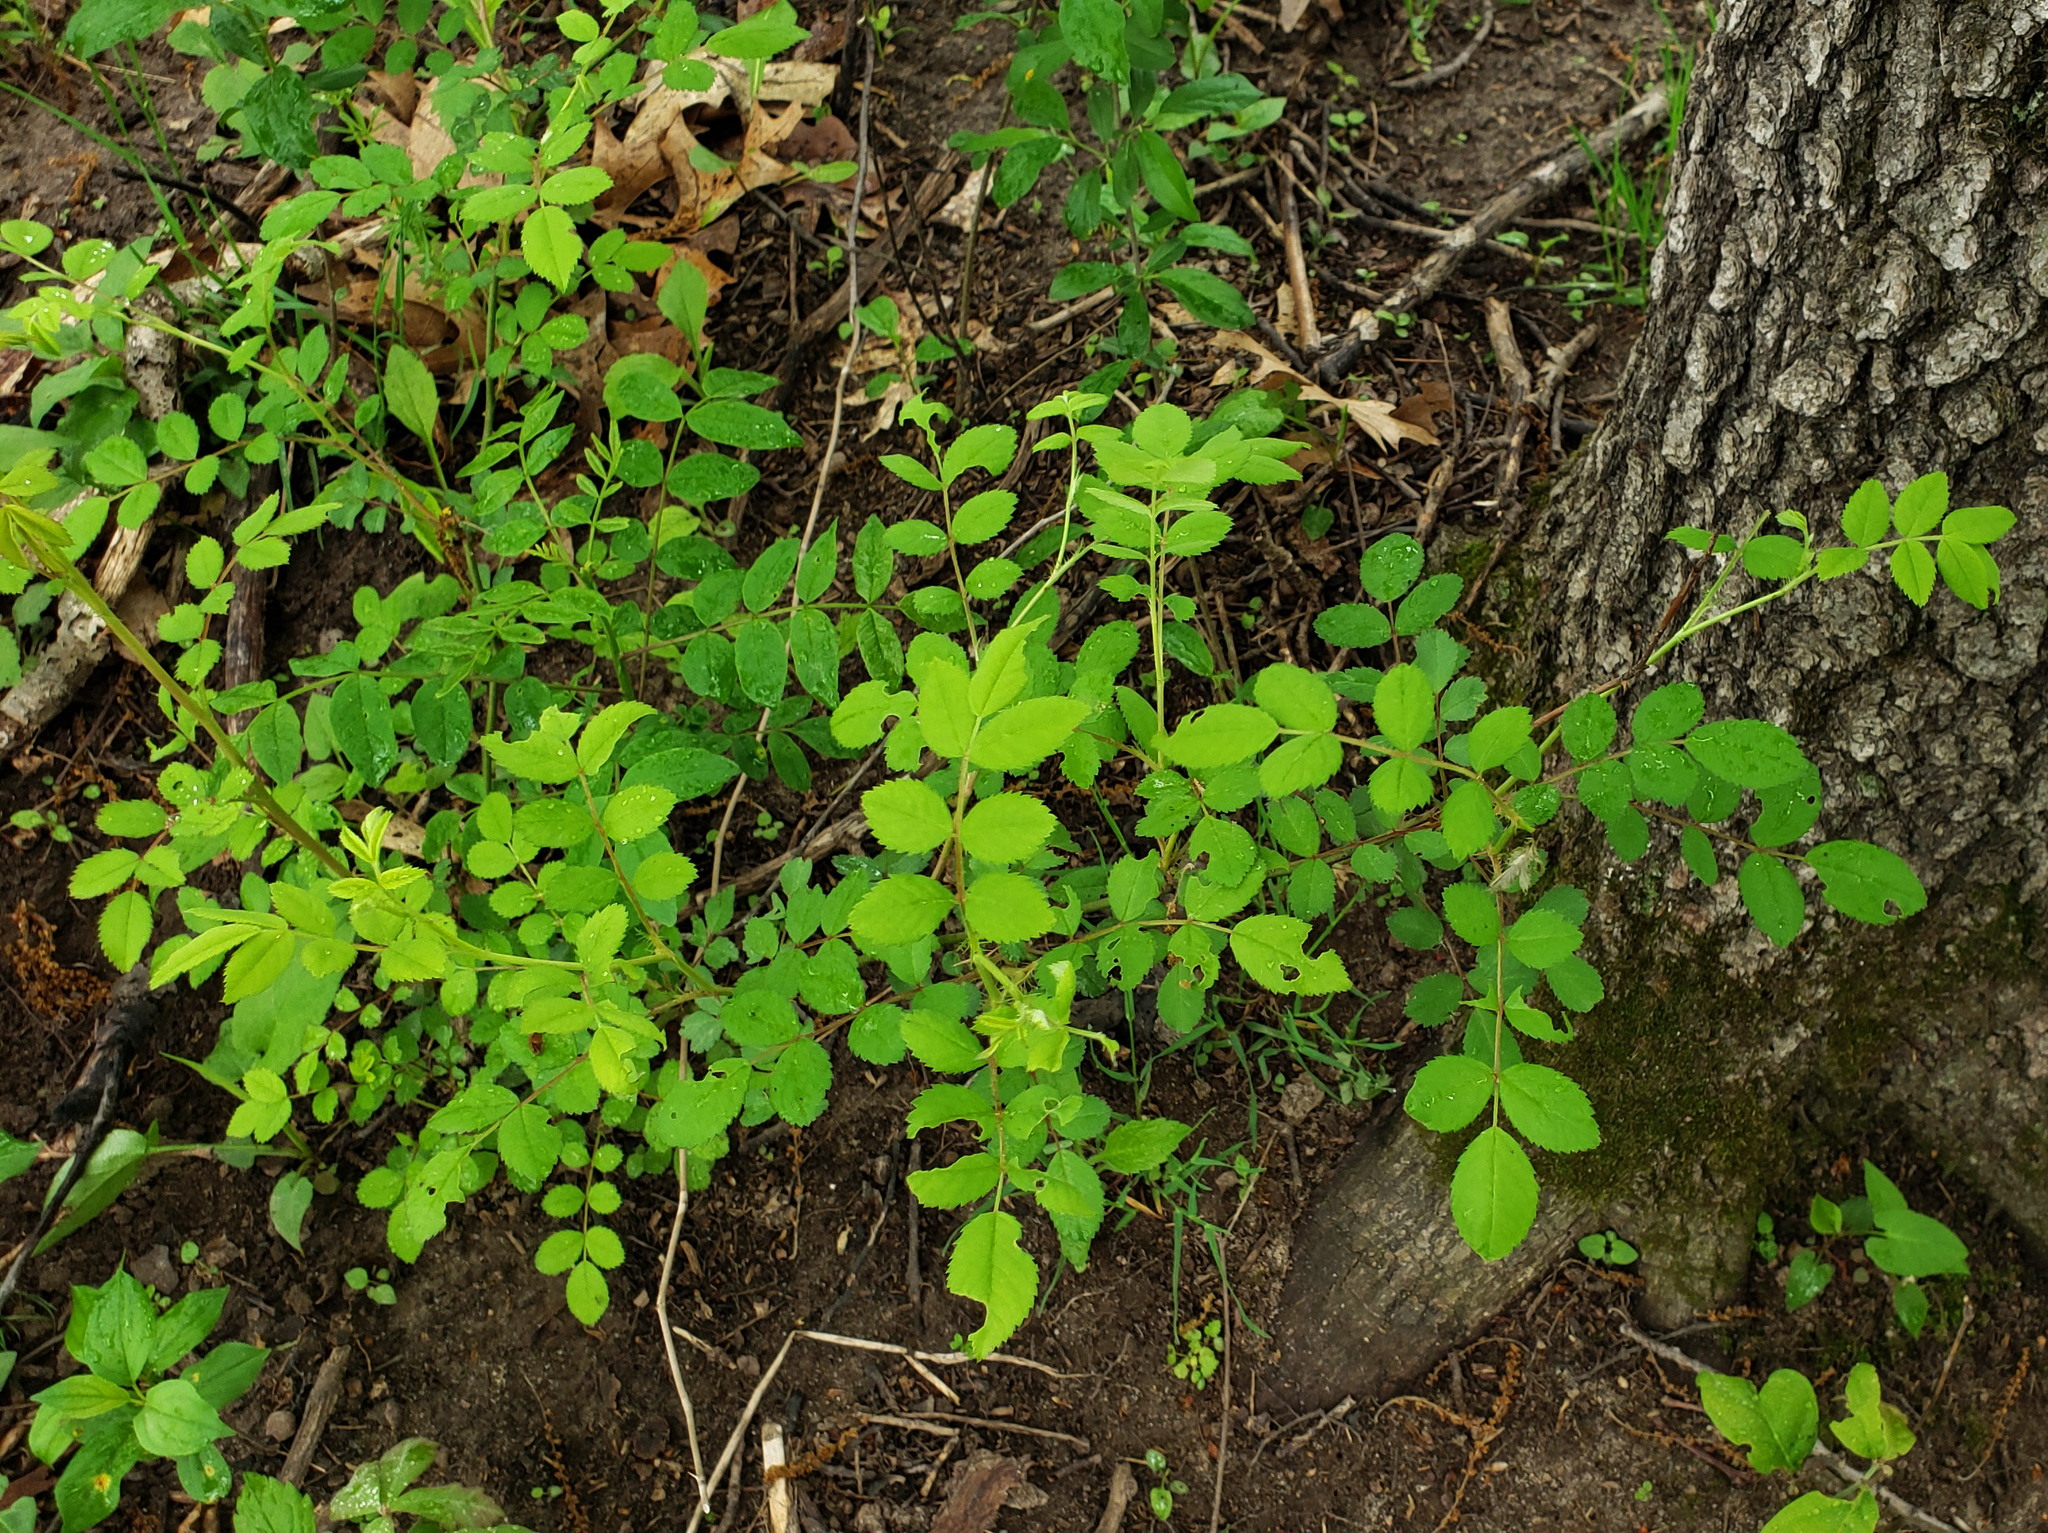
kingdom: Plantae
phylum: Tracheophyta
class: Magnoliopsida
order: Rosales
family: Rosaceae
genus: Rosa
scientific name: Rosa multiflora
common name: Multiflora rose
